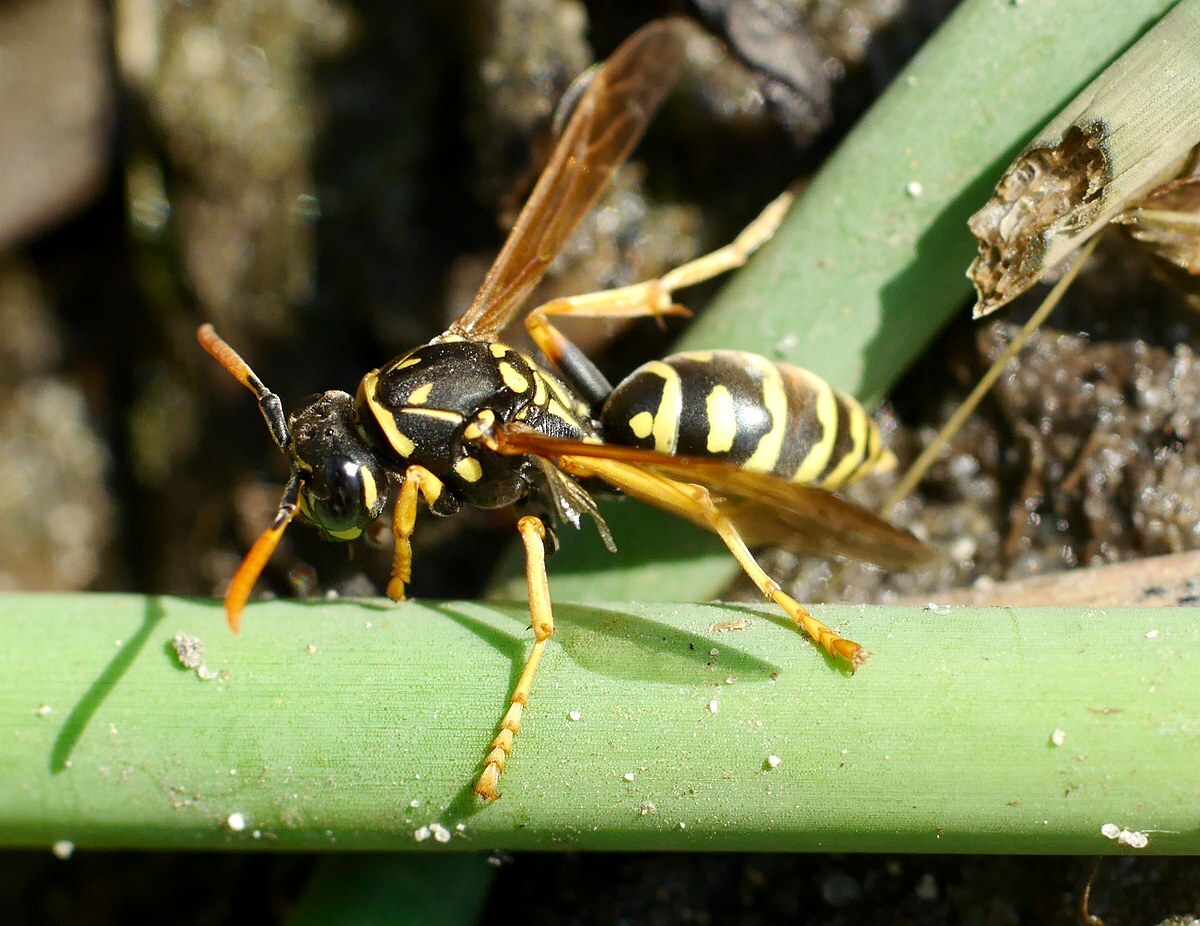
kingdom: Animalia
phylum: Arthropoda
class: Insecta
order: Hymenoptera
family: Eumenidae
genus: Polistes
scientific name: Polistes dominula
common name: Paper wasp
